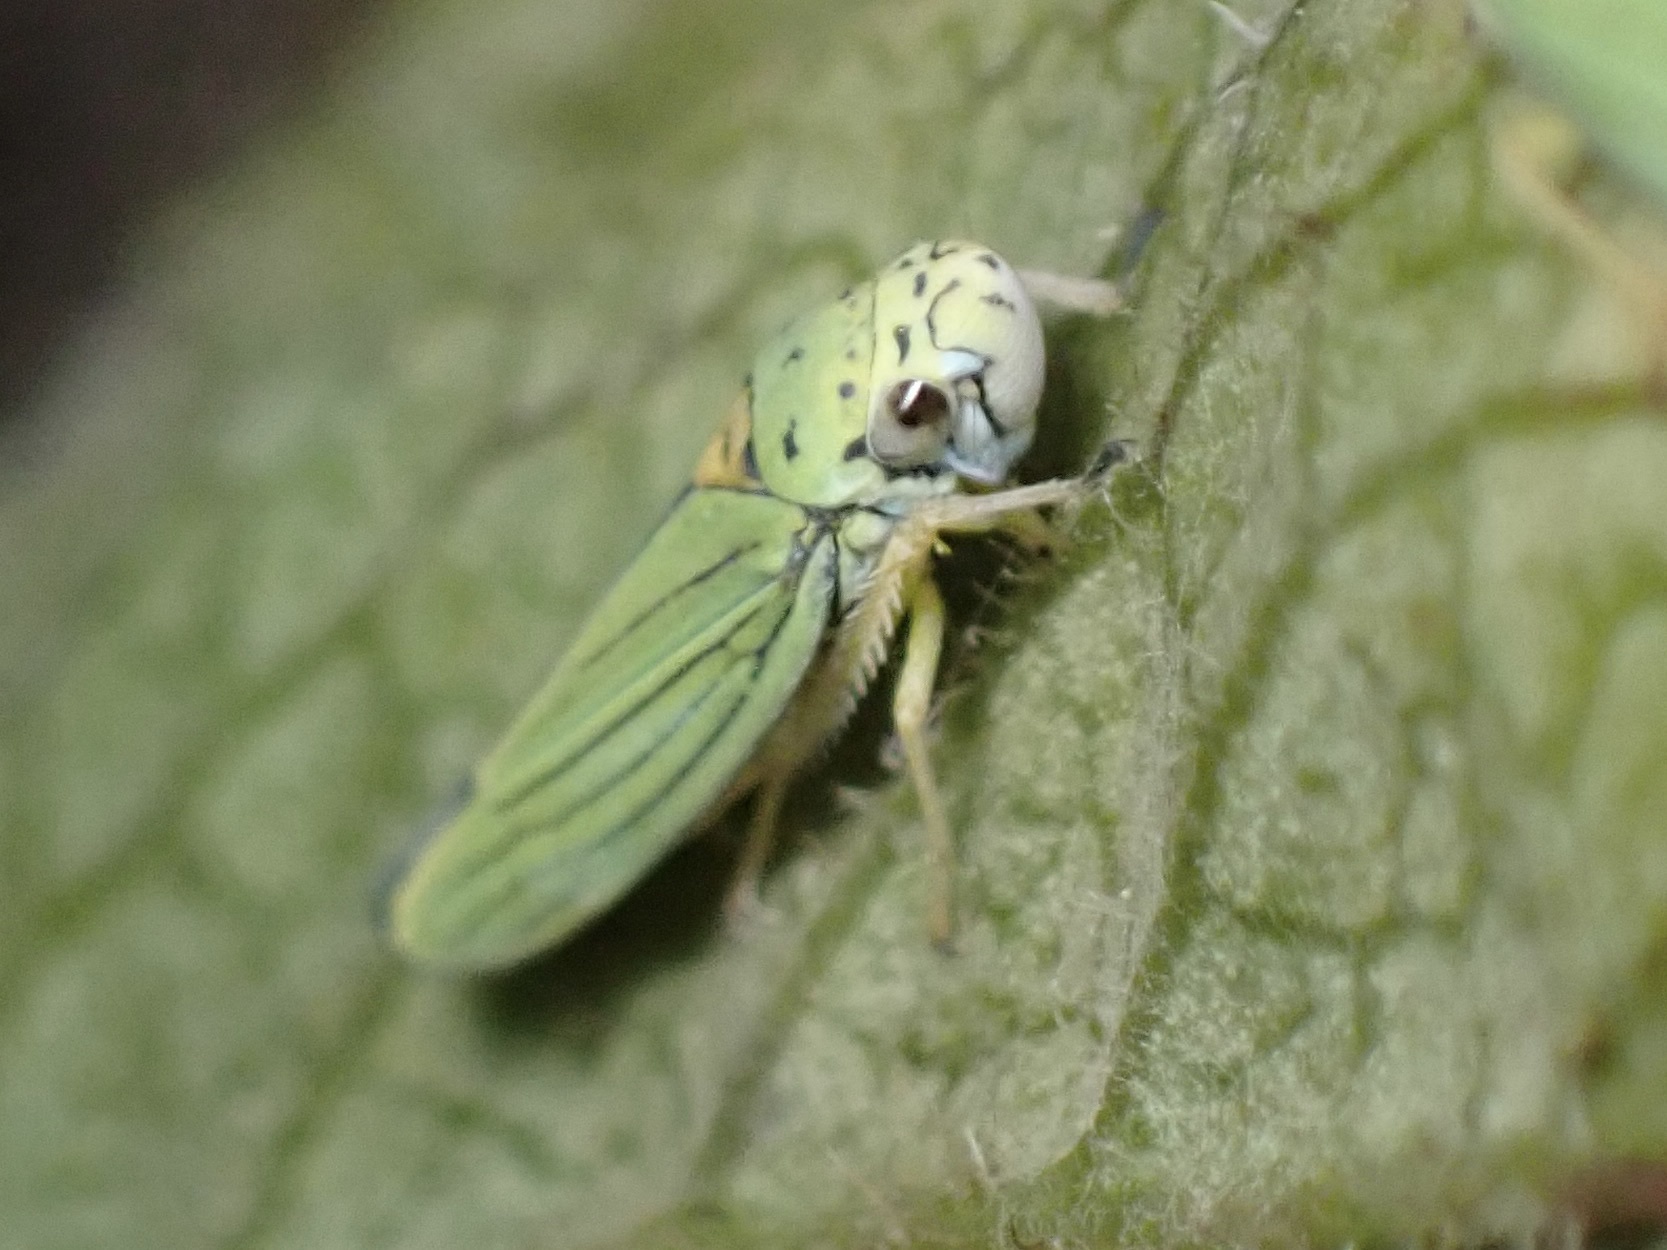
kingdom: Animalia
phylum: Arthropoda
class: Insecta
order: Hemiptera
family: Cicadellidae
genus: Graphocephala
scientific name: Graphocephala atropunctata
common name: Blue-green sharpshooter
